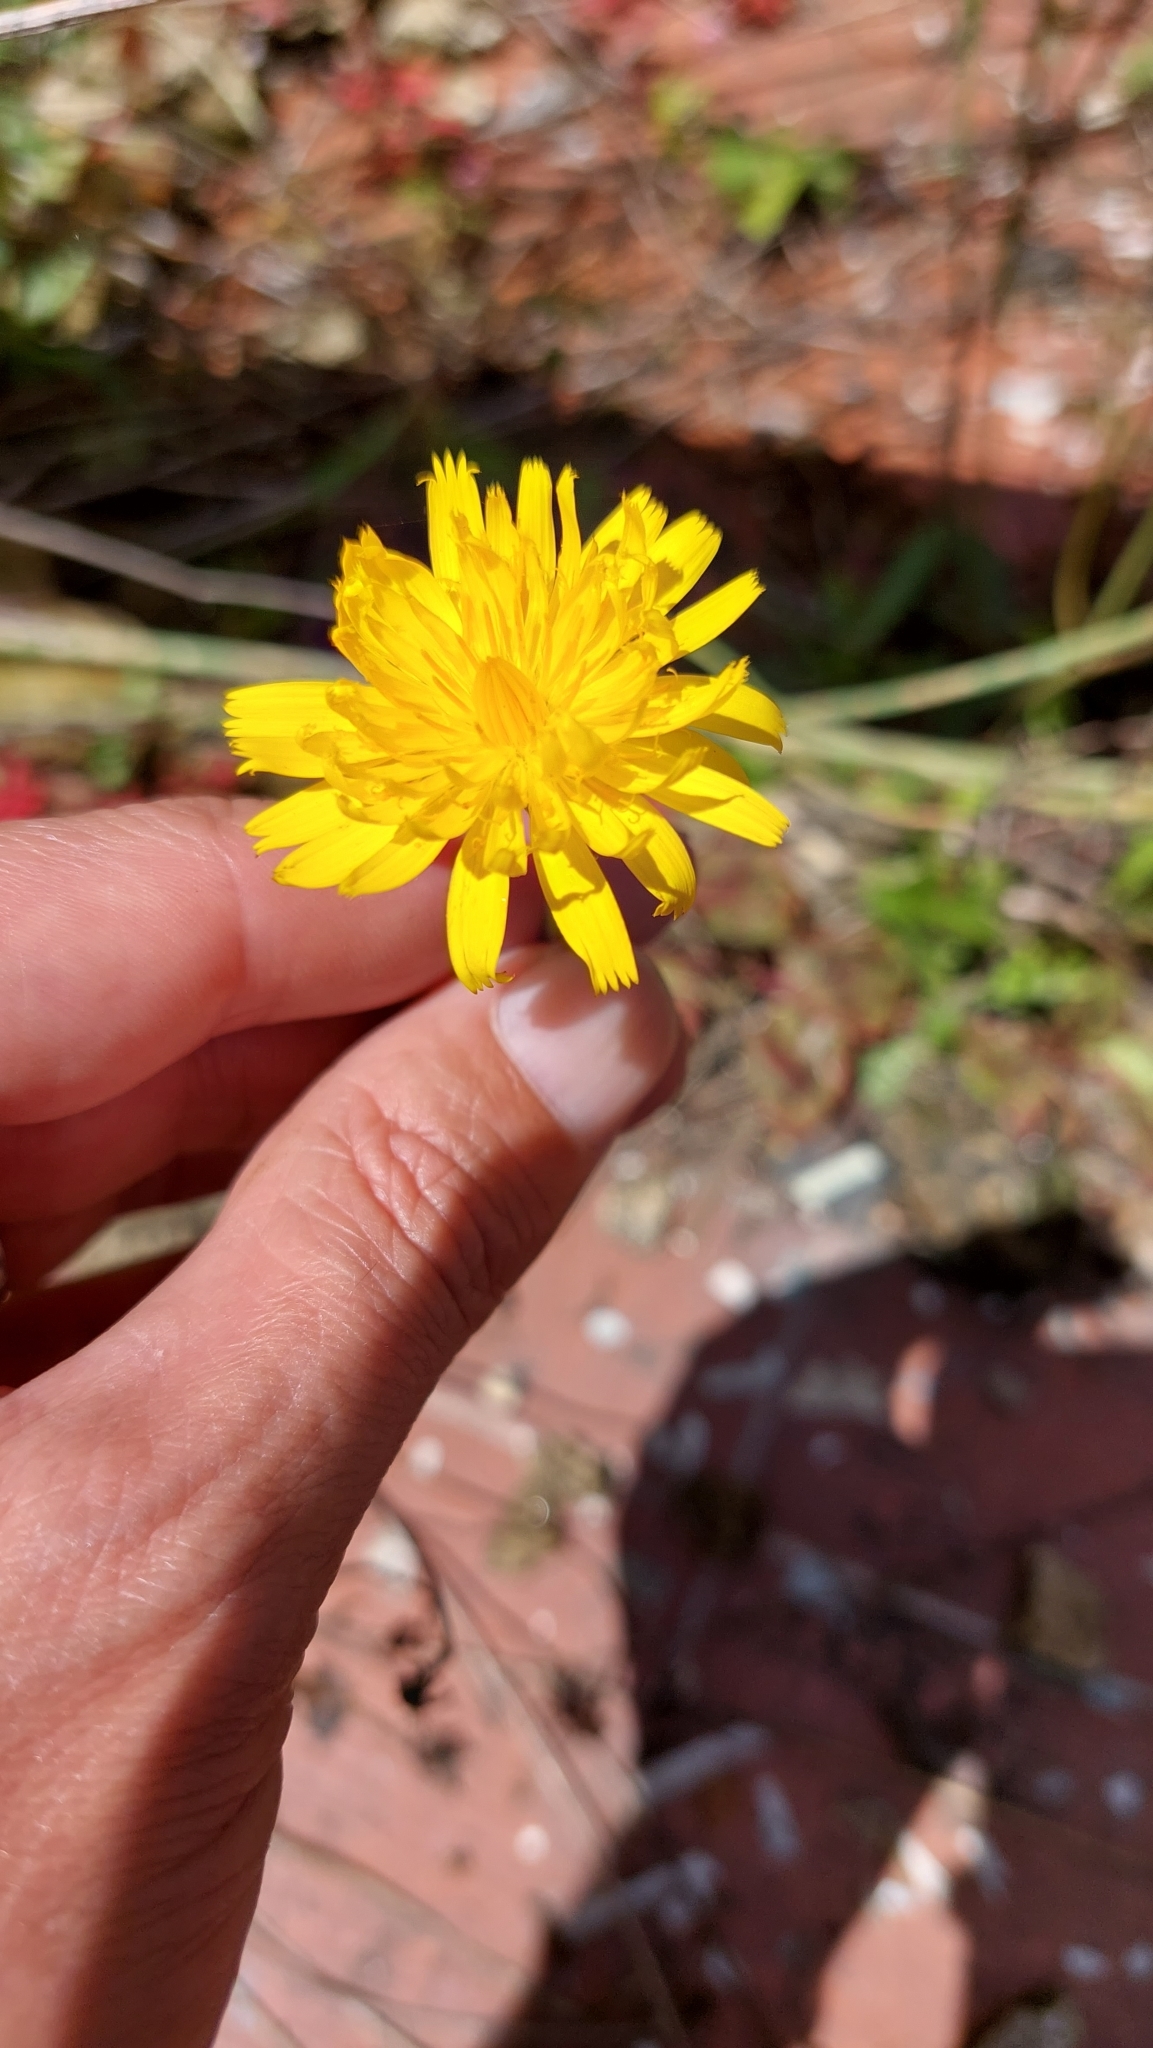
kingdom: Plantae
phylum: Tracheophyta
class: Magnoliopsida
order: Asterales
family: Asteraceae
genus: Hypochaeris
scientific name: Hypochaeris radicata
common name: Flatweed
